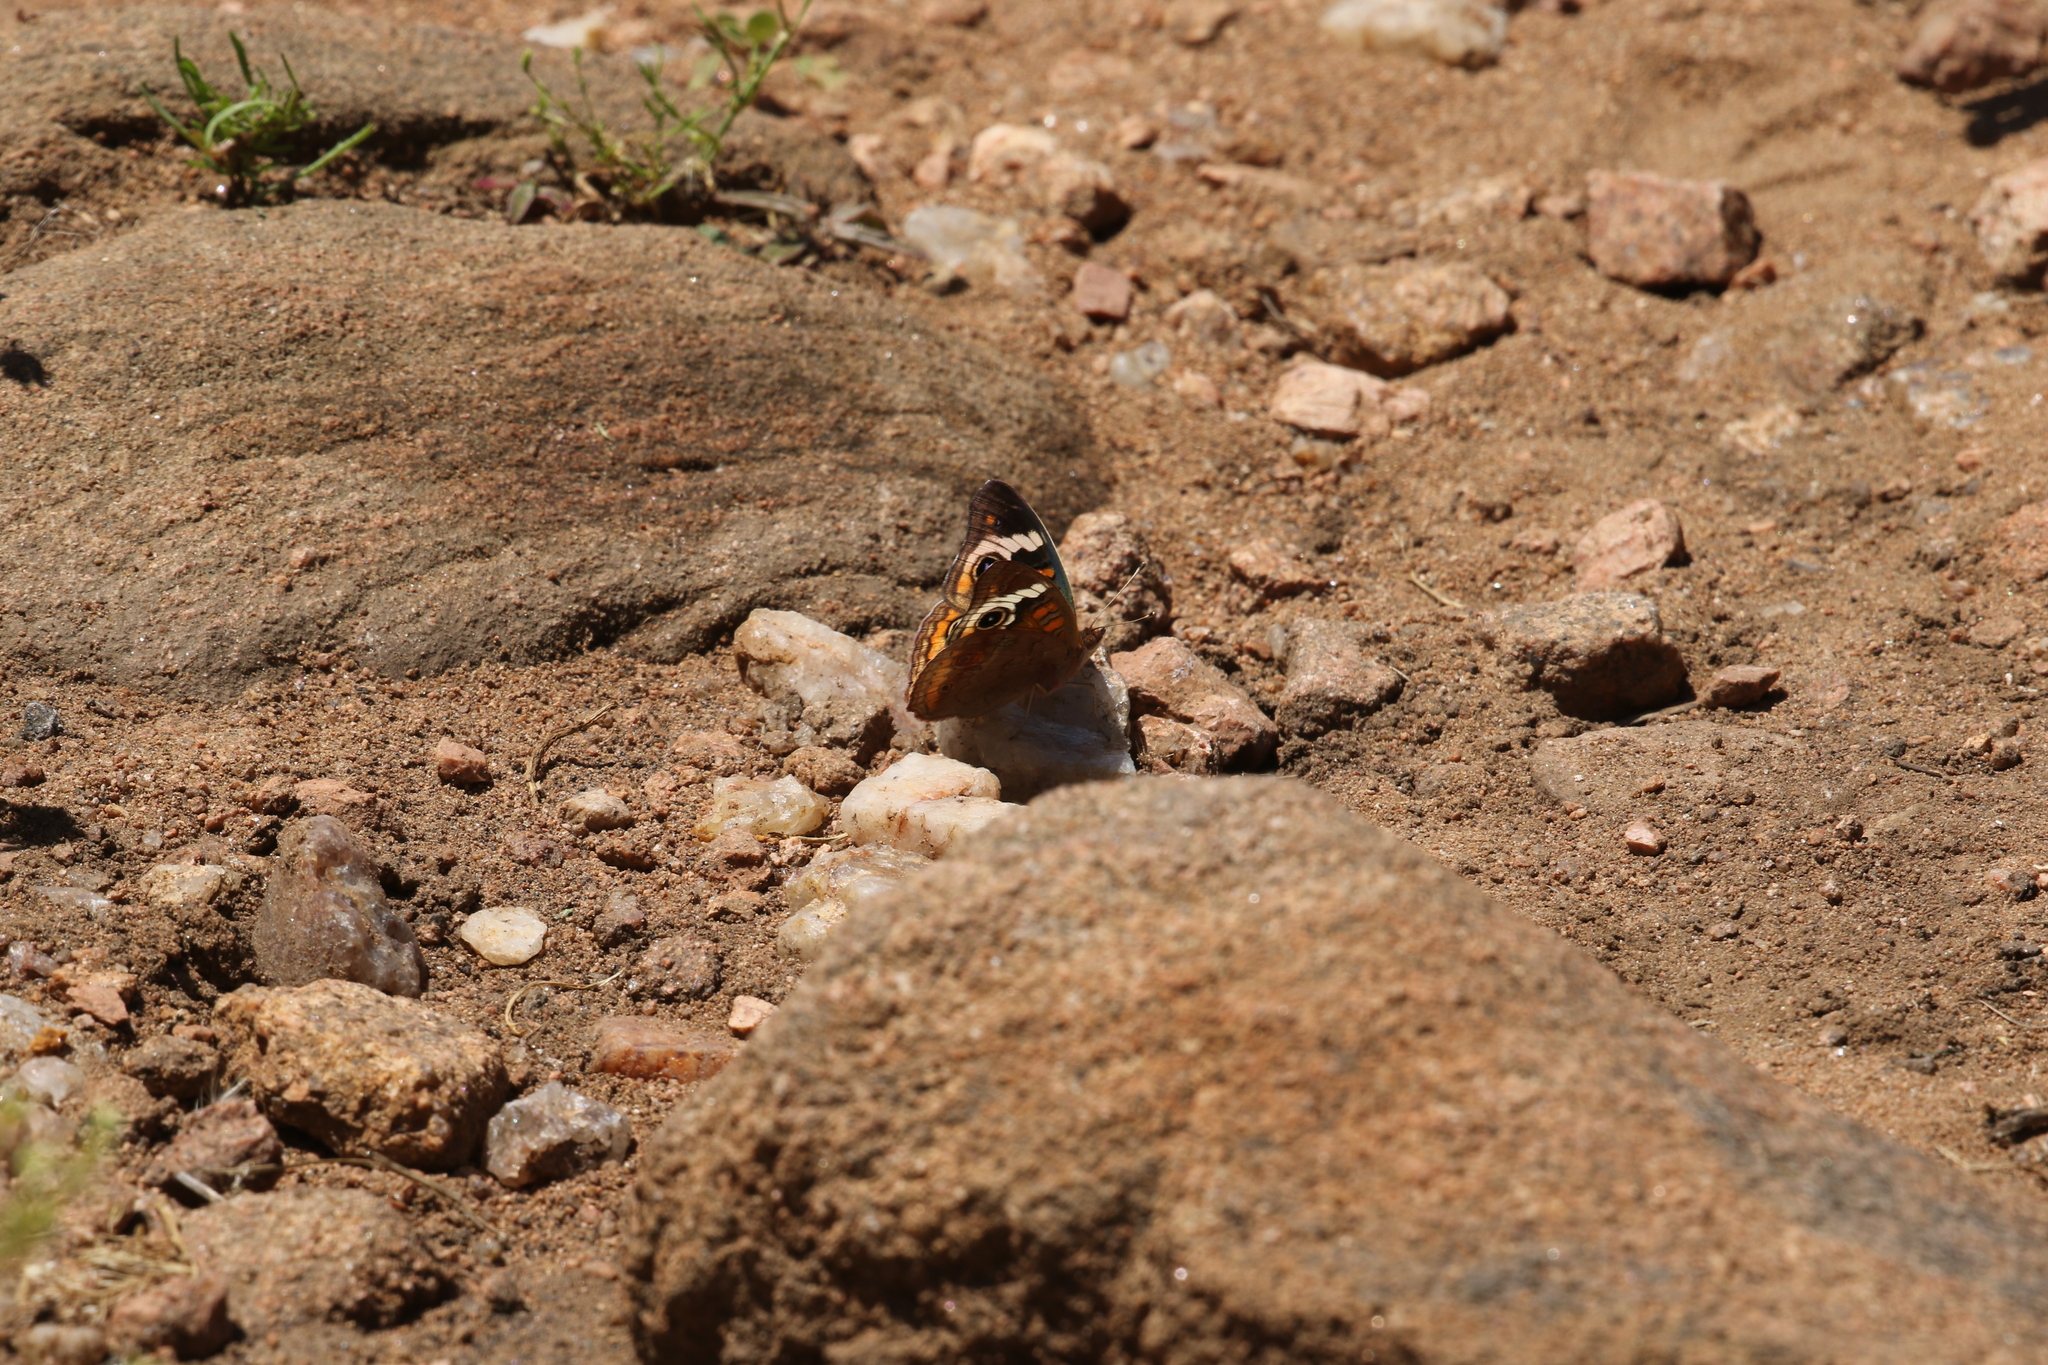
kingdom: Animalia
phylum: Arthropoda
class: Insecta
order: Lepidoptera
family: Nymphalidae
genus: Junonia
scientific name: Junonia coenia
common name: Common buckeye
